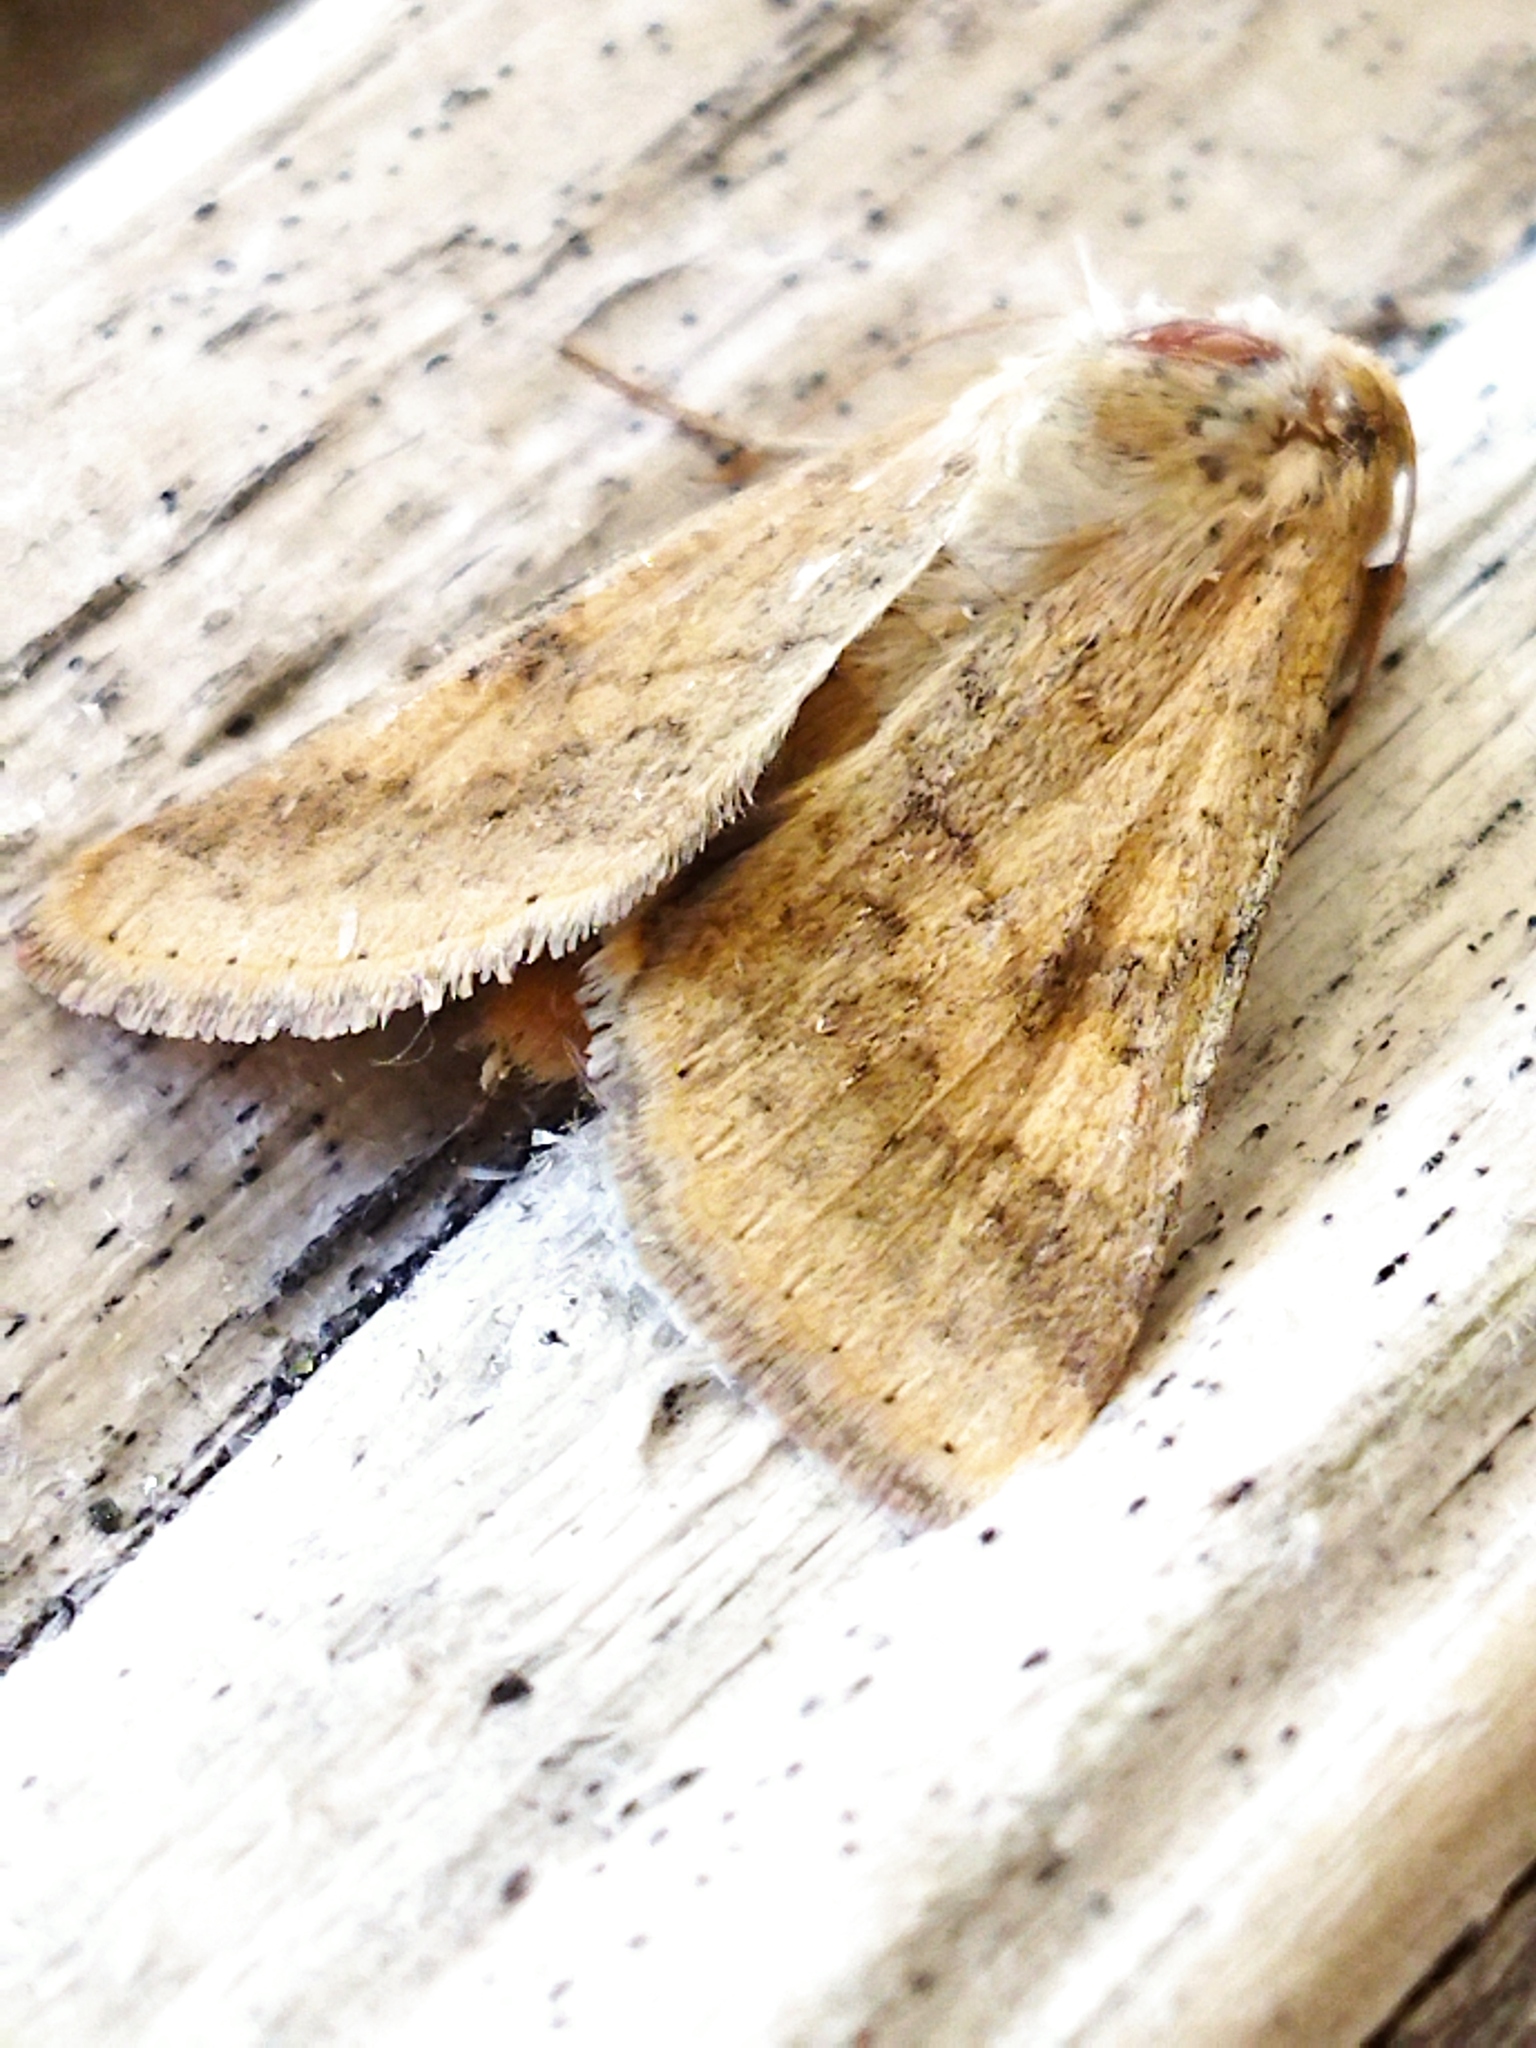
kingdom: Animalia
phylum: Arthropoda
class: Insecta
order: Lepidoptera
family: Noctuidae
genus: Helicoverpa
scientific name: Helicoverpa armigera
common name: Cotton bollworm
